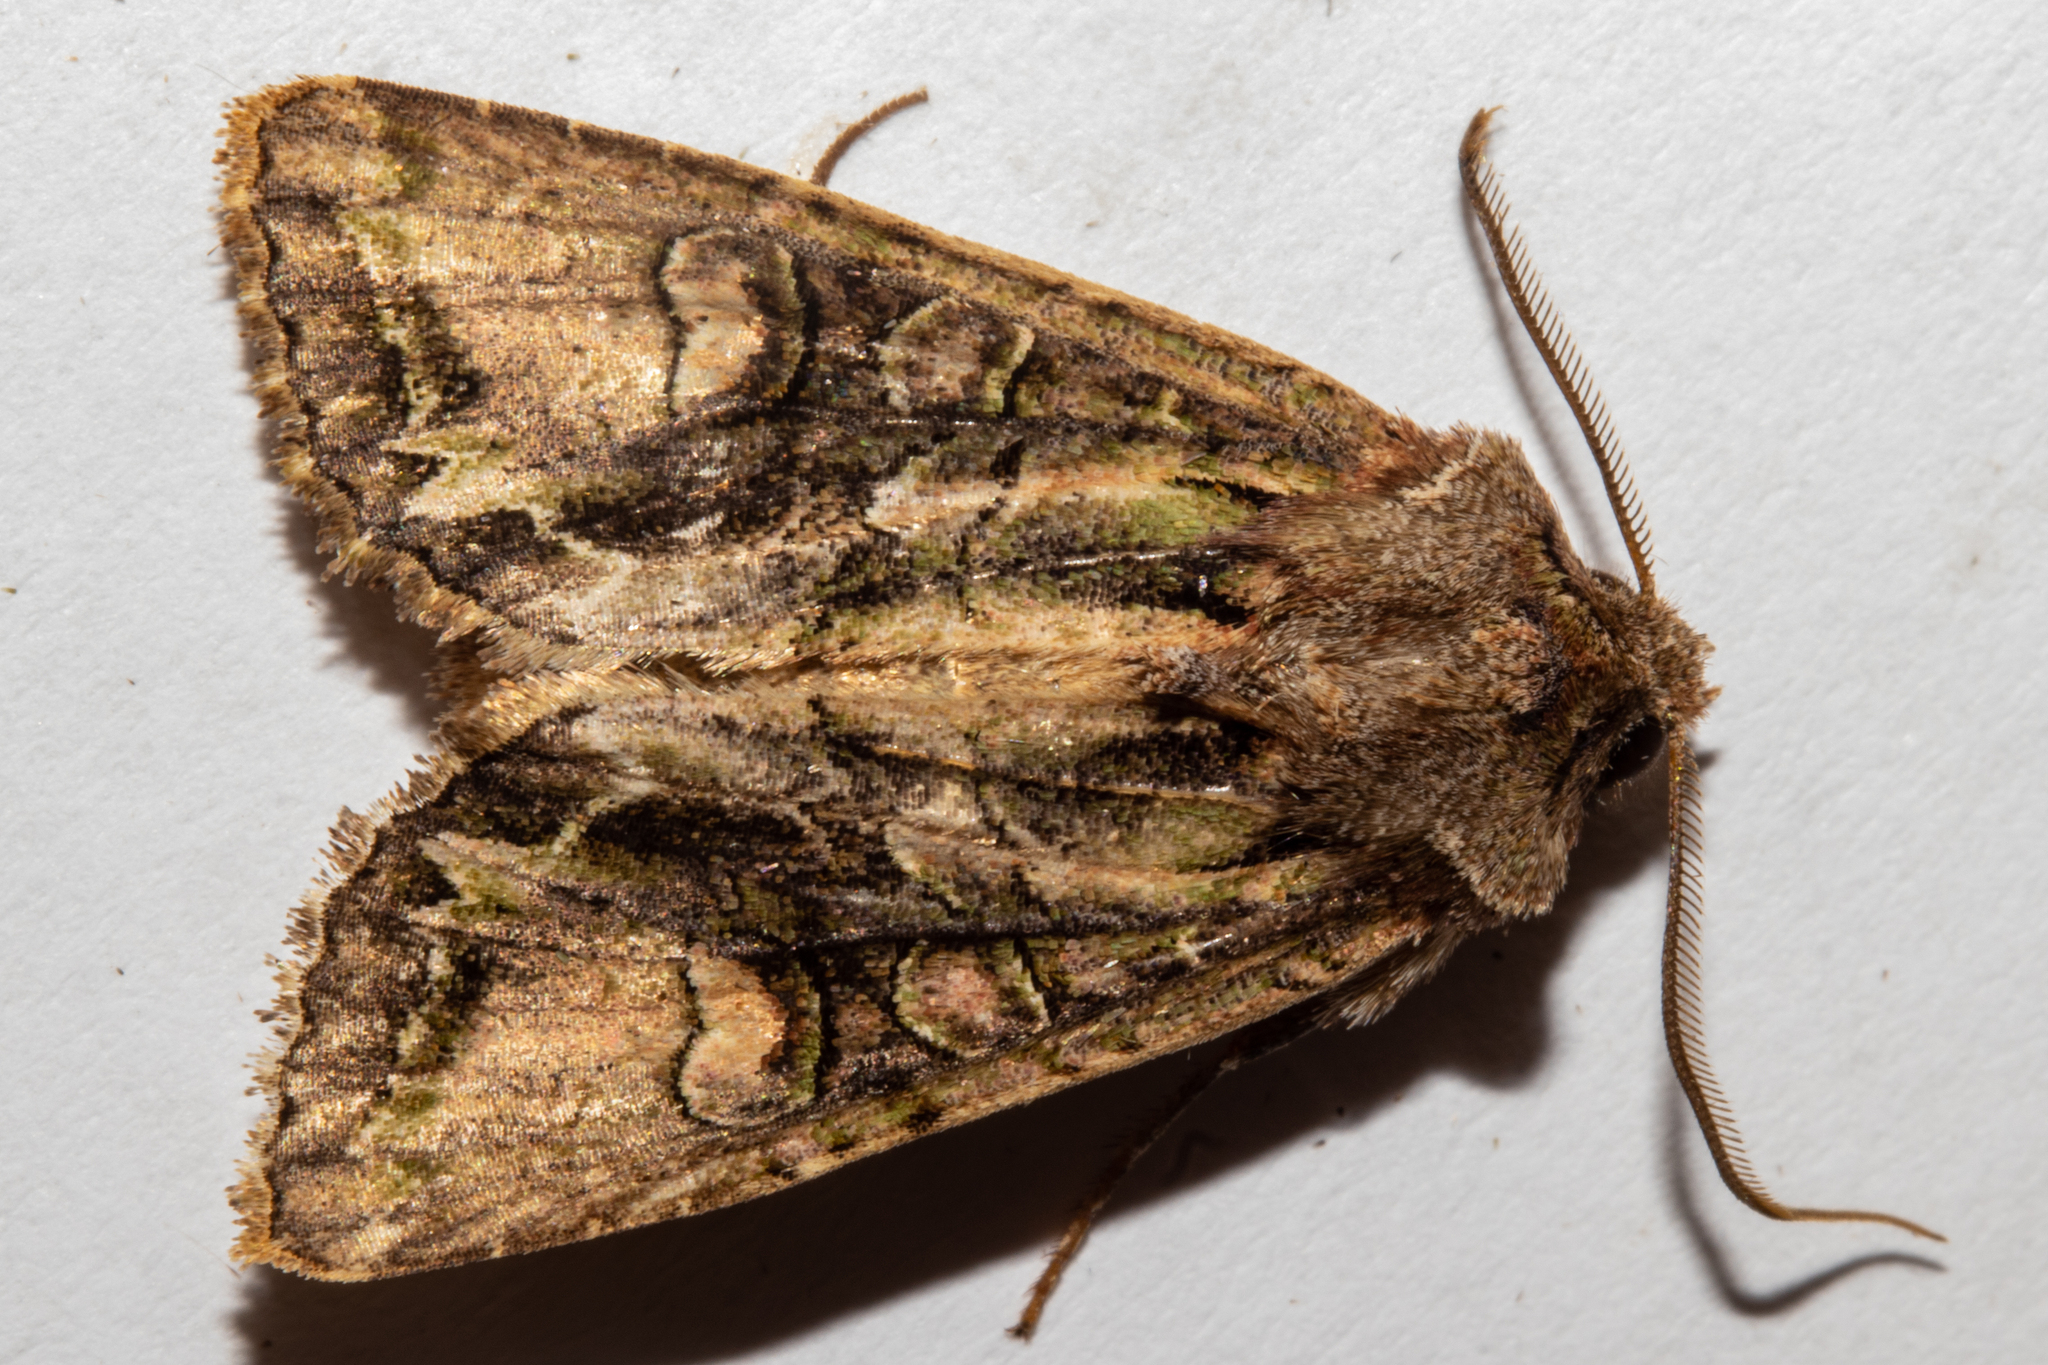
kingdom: Animalia
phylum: Arthropoda
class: Insecta
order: Lepidoptera
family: Noctuidae
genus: Ichneutica
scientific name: Ichneutica insignis
